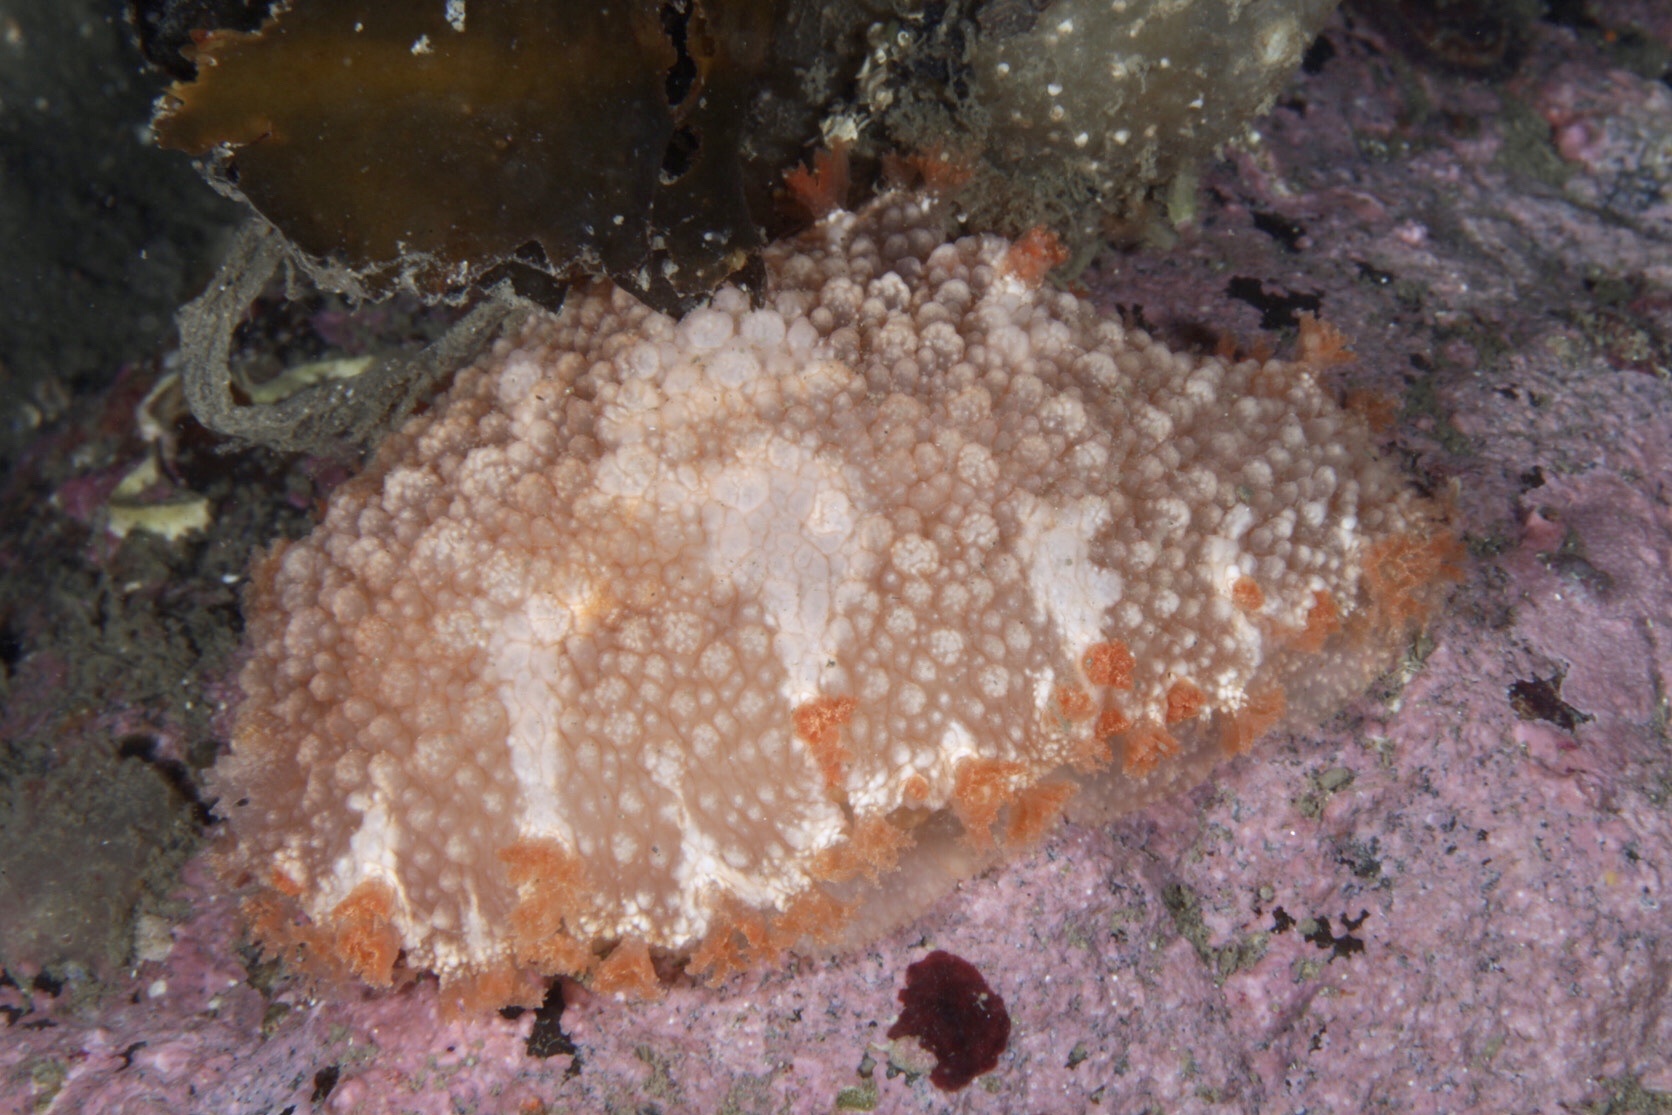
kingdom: Animalia
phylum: Mollusca
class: Gastropoda
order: Nudibranchia
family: Tritoniidae
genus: Tritonia
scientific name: Tritonia hombergii
